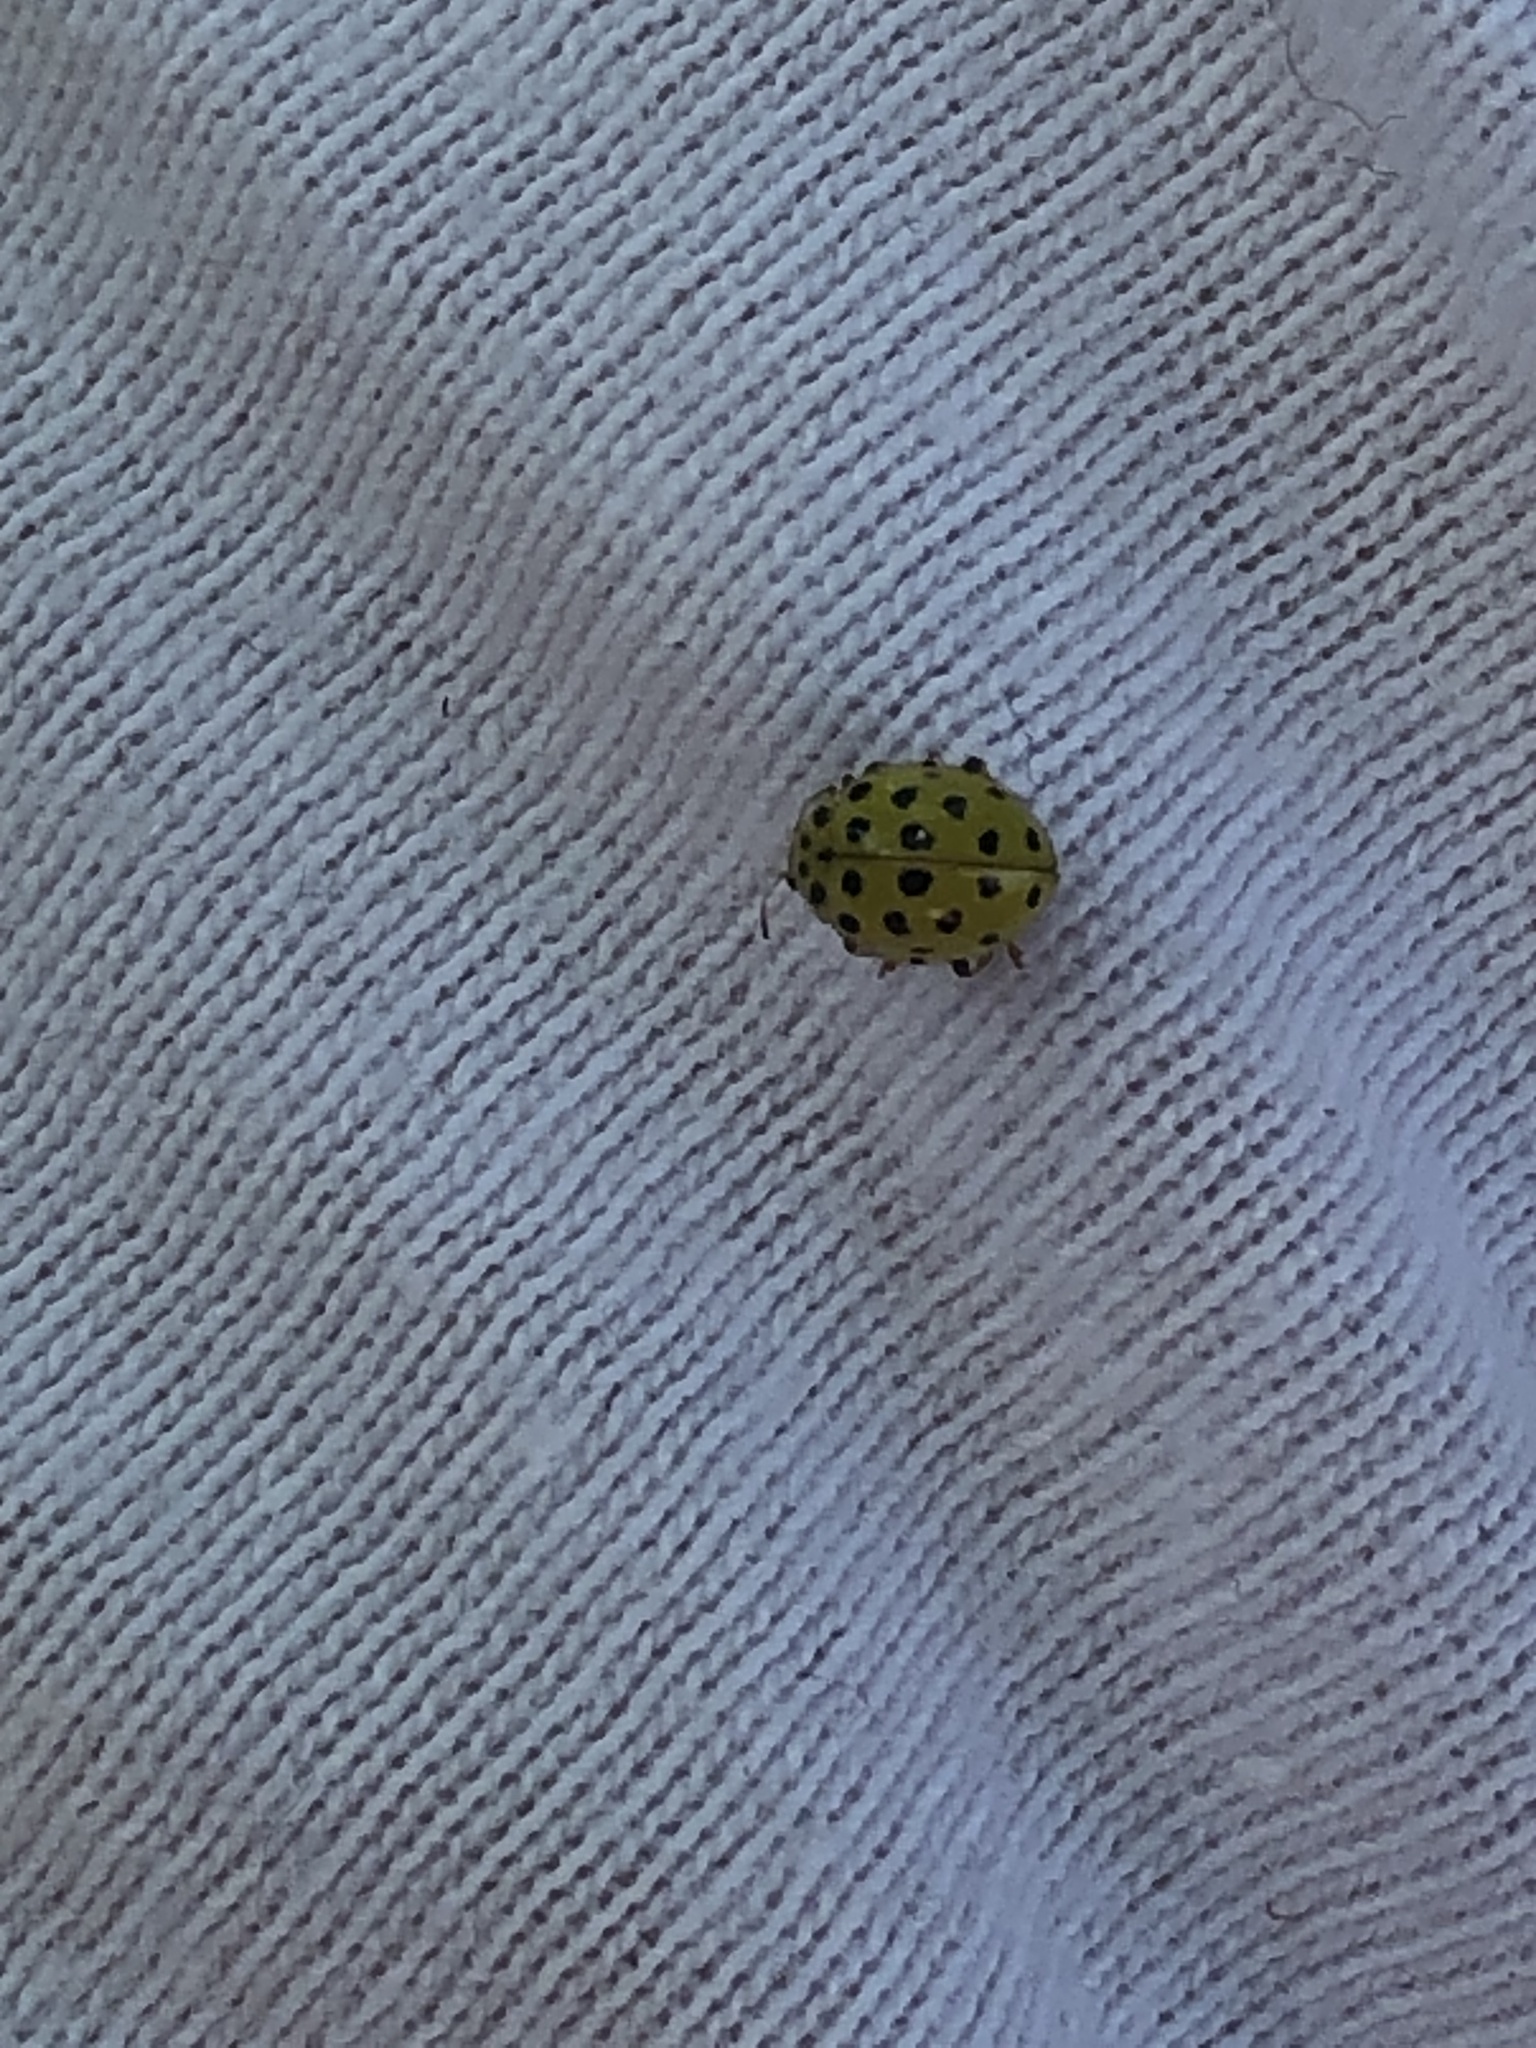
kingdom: Animalia
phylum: Arthropoda
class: Insecta
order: Coleoptera
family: Coccinellidae
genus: Psyllobora
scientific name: Psyllobora vigintiduopunctata
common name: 22-spot ladybird
